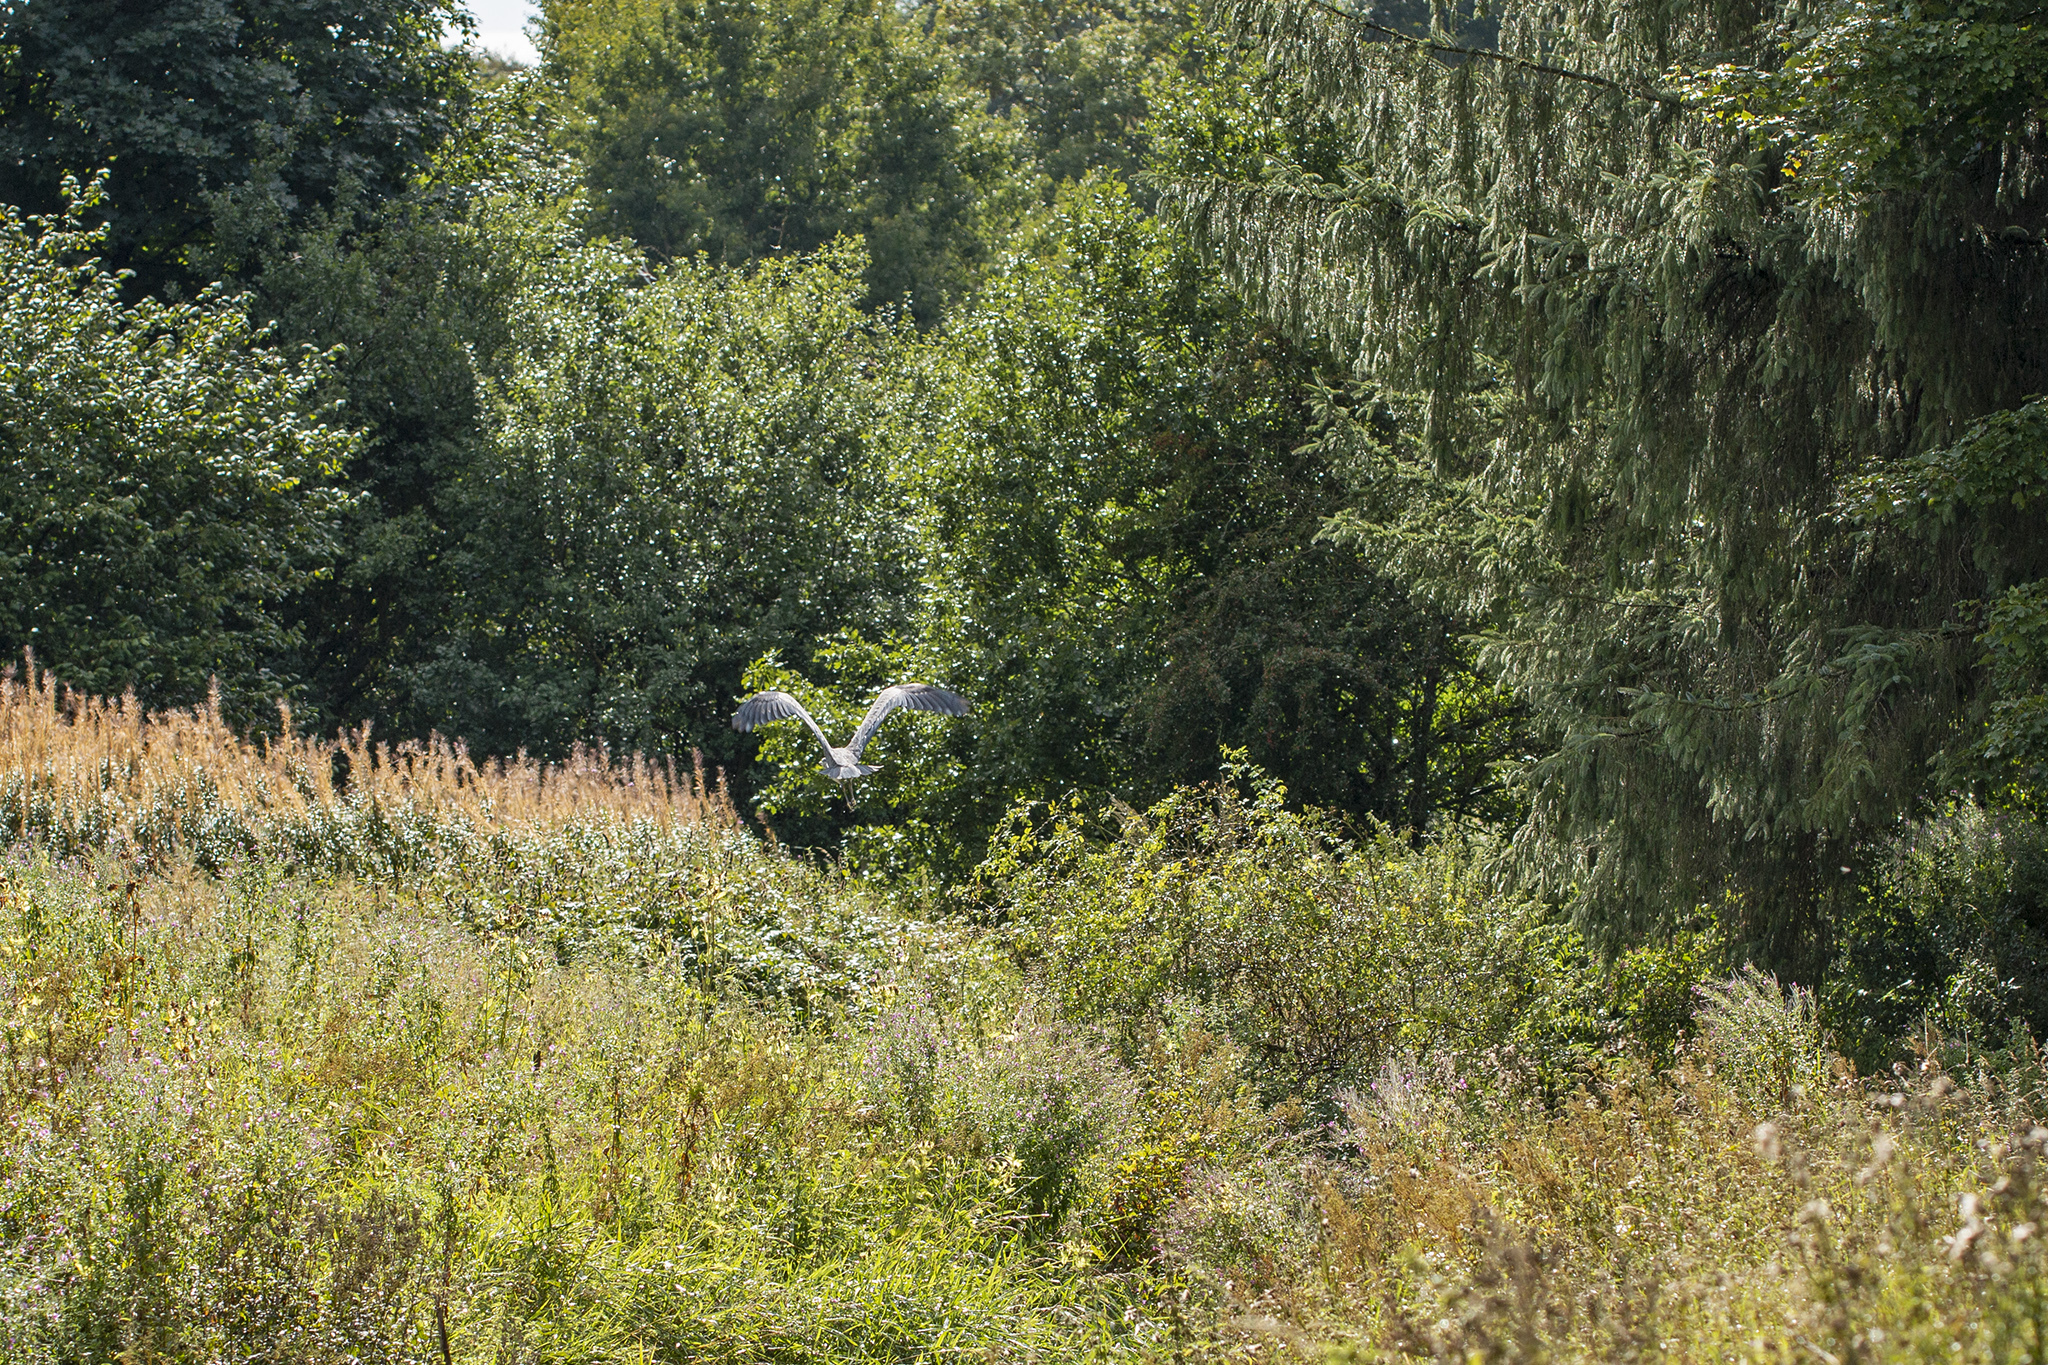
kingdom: Animalia
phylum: Chordata
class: Aves
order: Pelecaniformes
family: Ardeidae
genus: Ardea
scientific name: Ardea cinerea
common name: Grey heron
